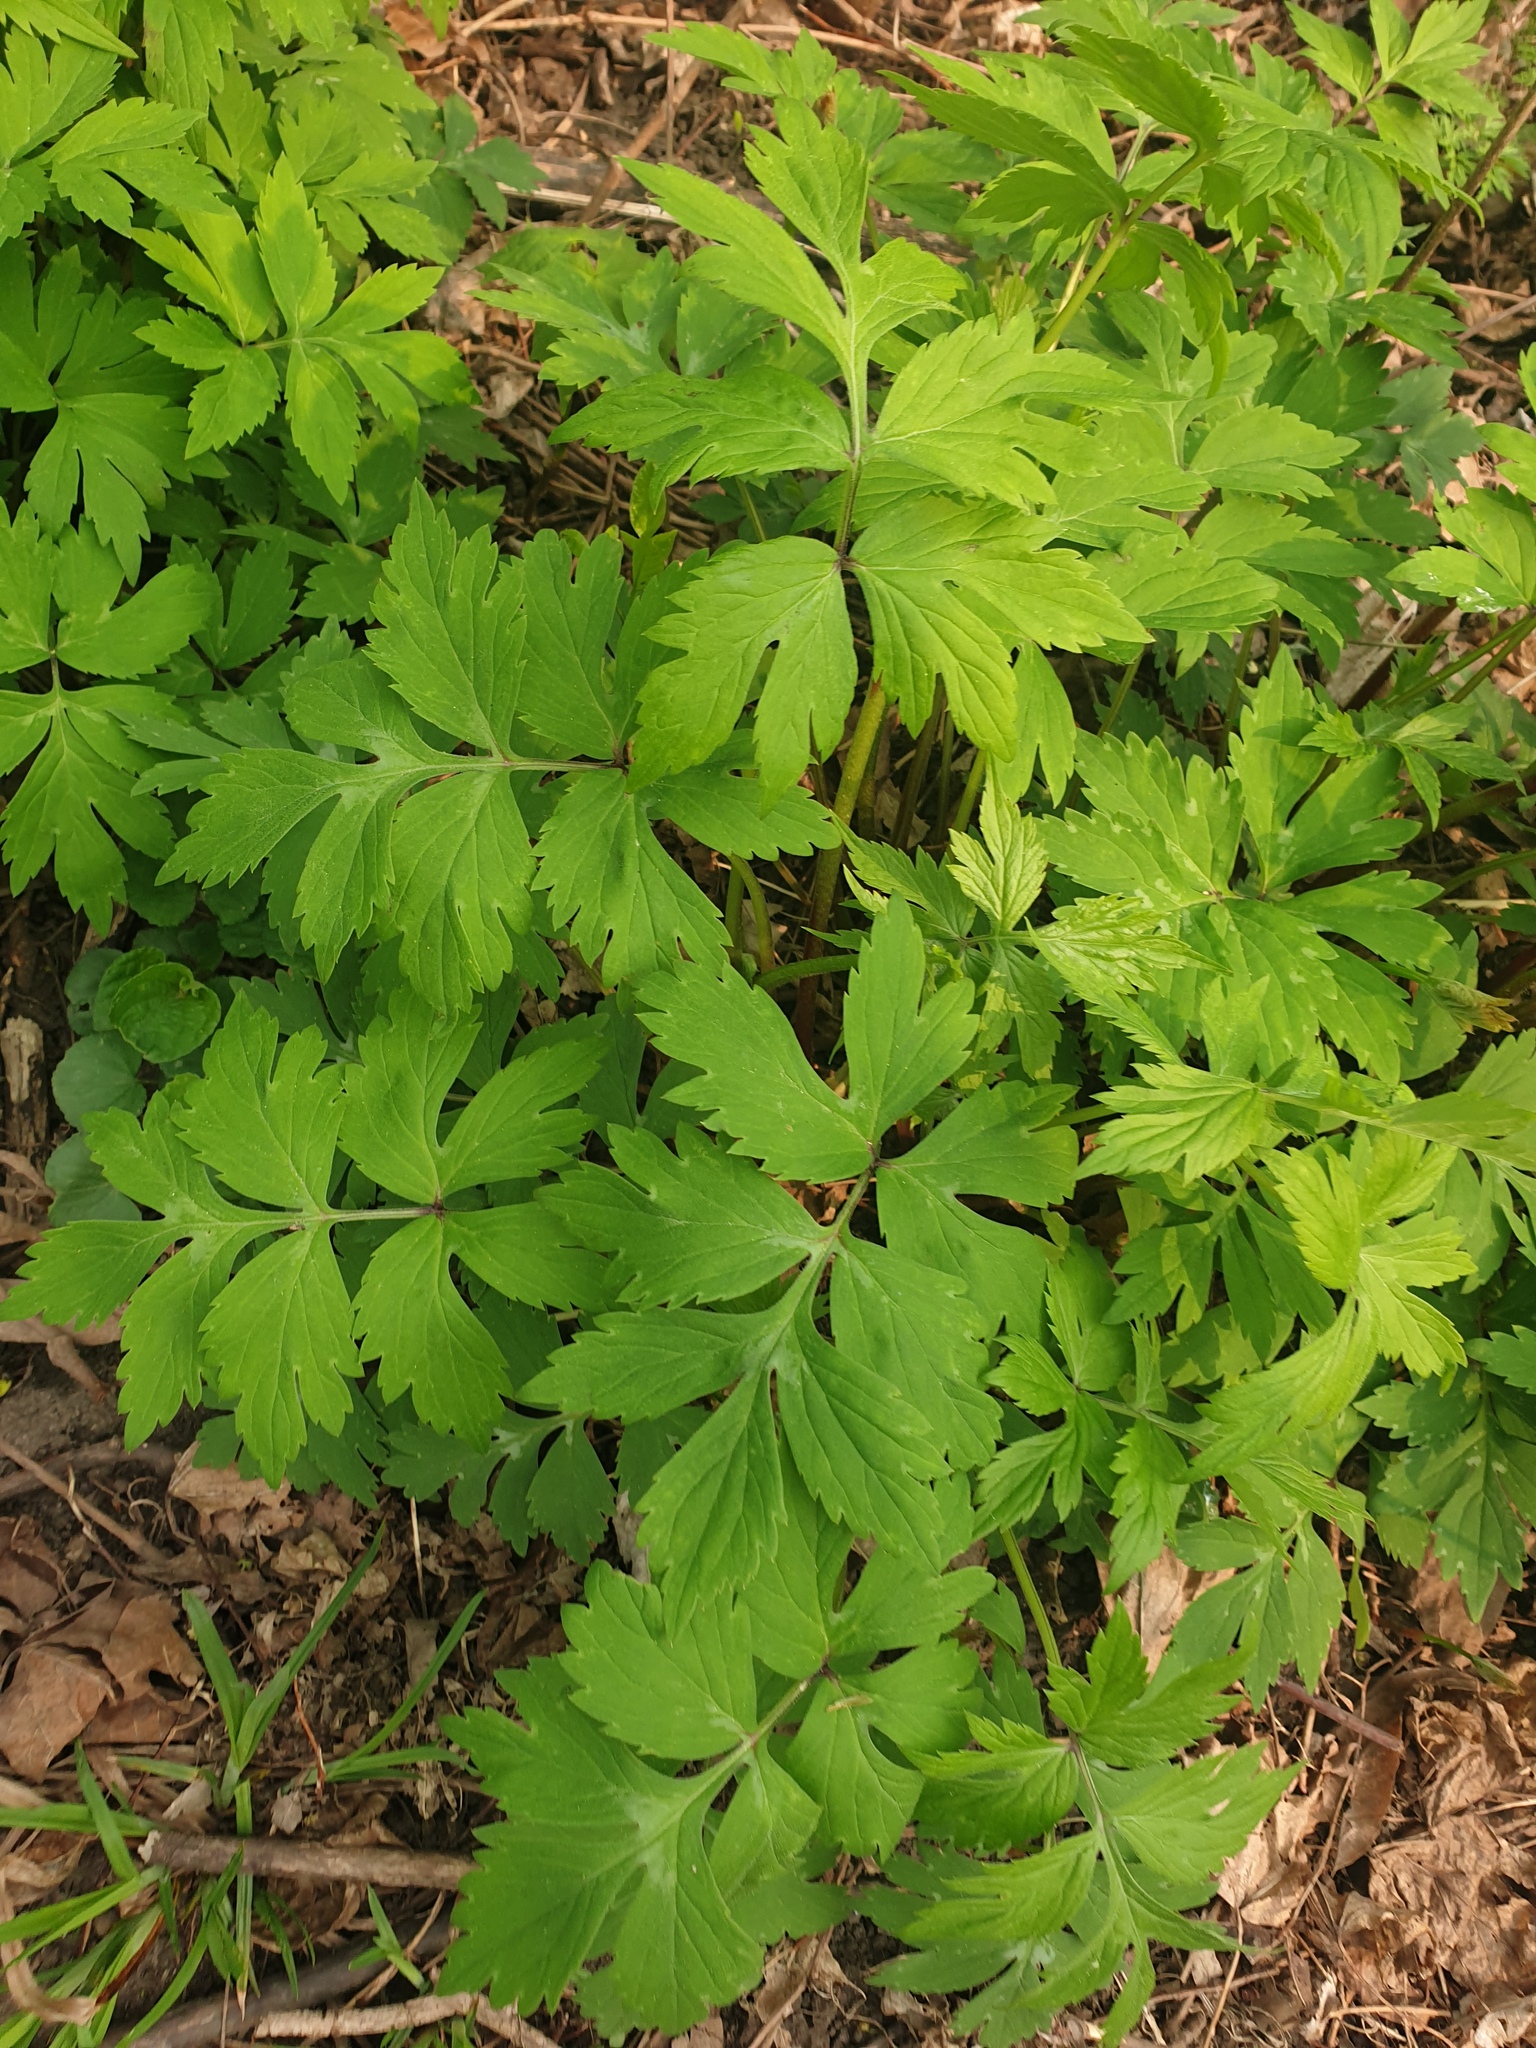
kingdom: Plantae
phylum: Tracheophyta
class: Magnoliopsida
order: Boraginales
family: Hydrophyllaceae
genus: Hydrophyllum
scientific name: Hydrophyllum virginianum
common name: Virginia waterleaf
